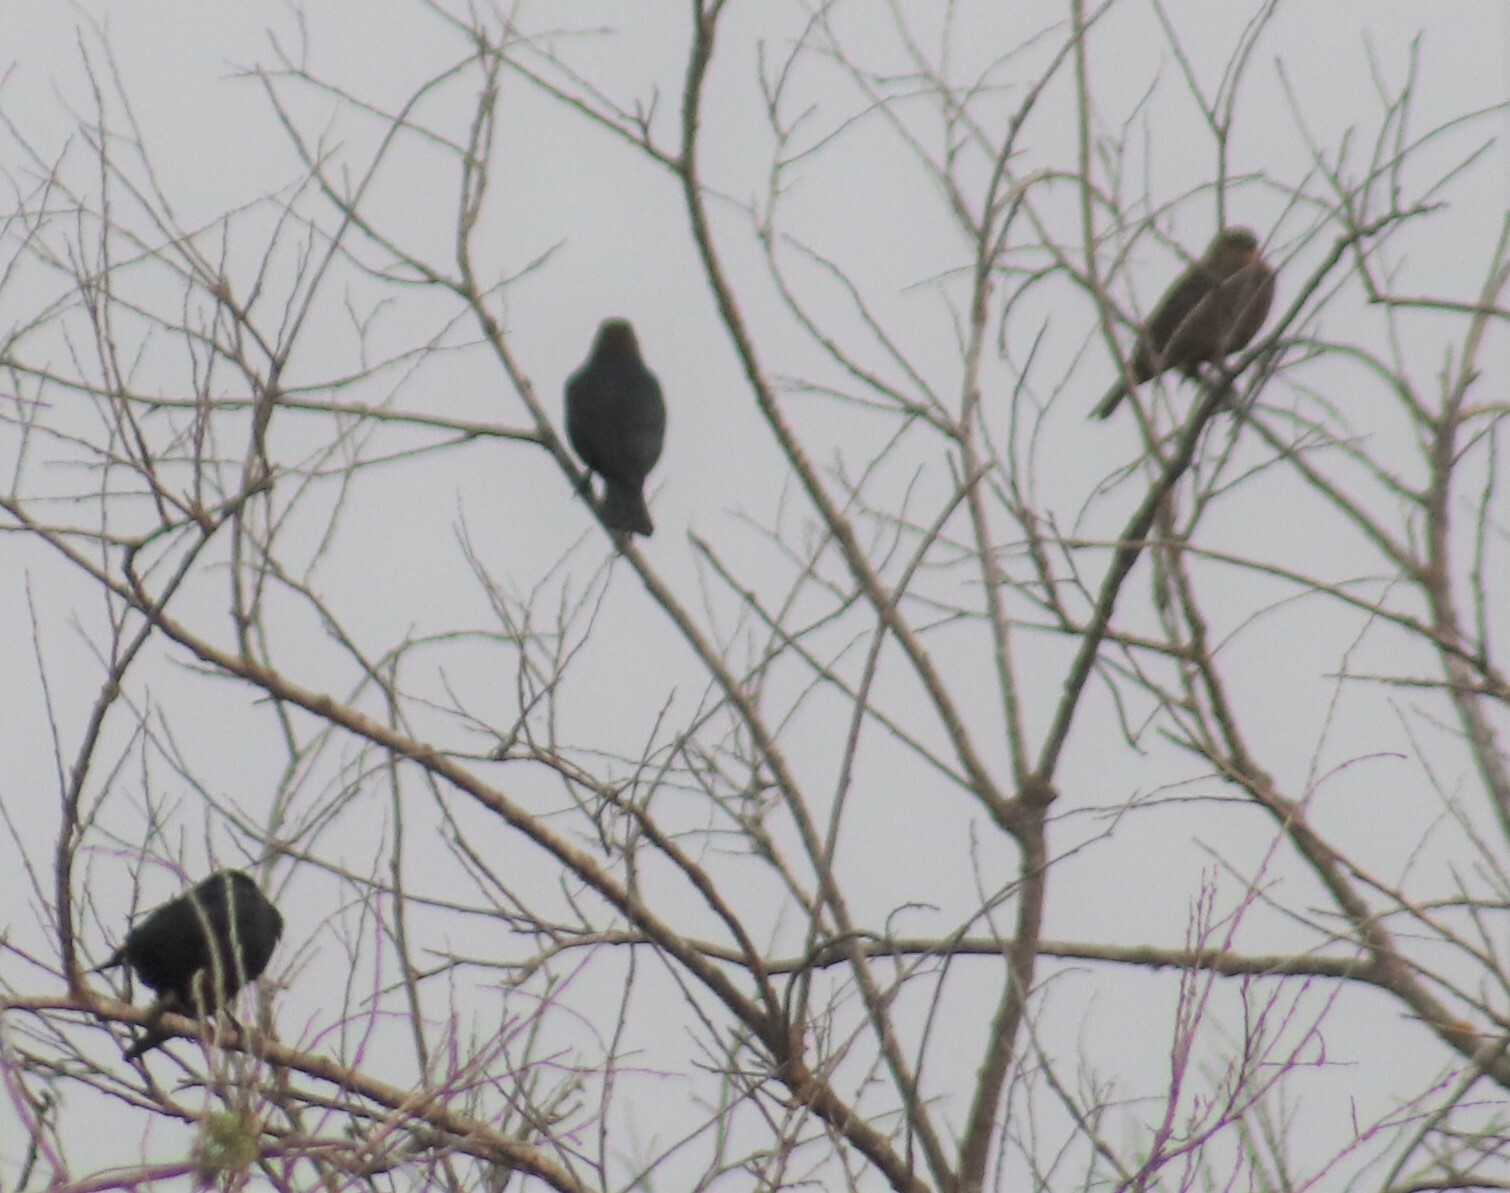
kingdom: Animalia
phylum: Chordata
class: Aves
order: Passeriformes
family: Icteridae
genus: Molothrus
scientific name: Molothrus ater
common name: Brown-headed cowbird
